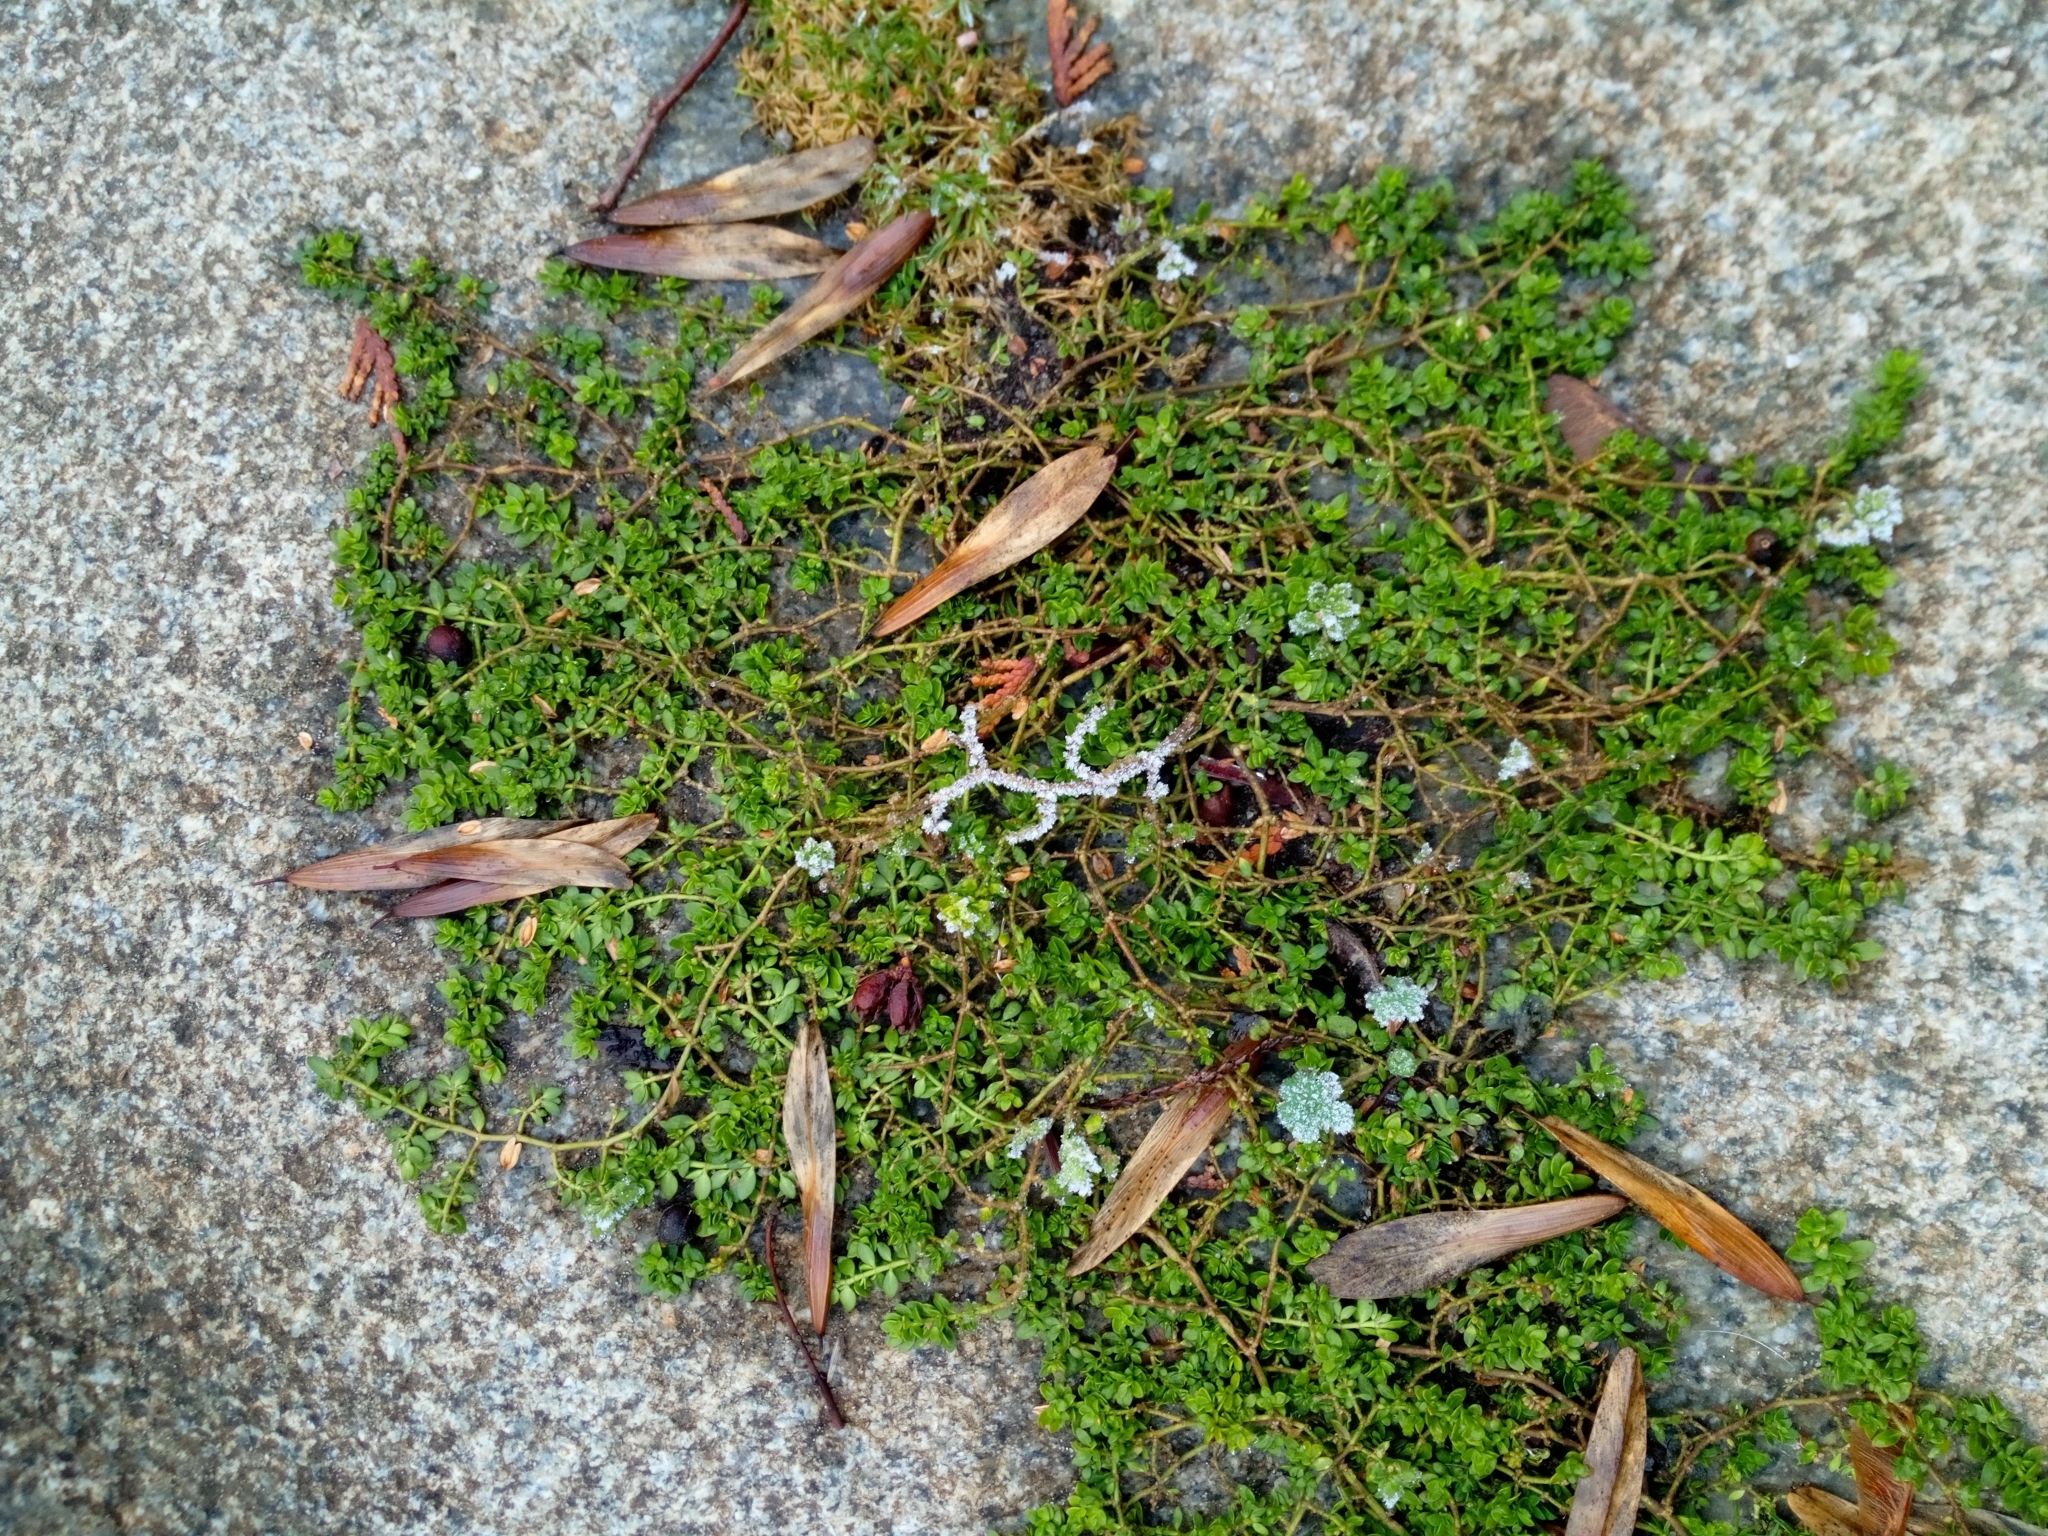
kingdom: Plantae
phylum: Tracheophyta
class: Magnoliopsida
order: Caryophyllales
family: Caryophyllaceae
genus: Herniaria
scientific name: Herniaria glabra
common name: Smooth rupturewort
